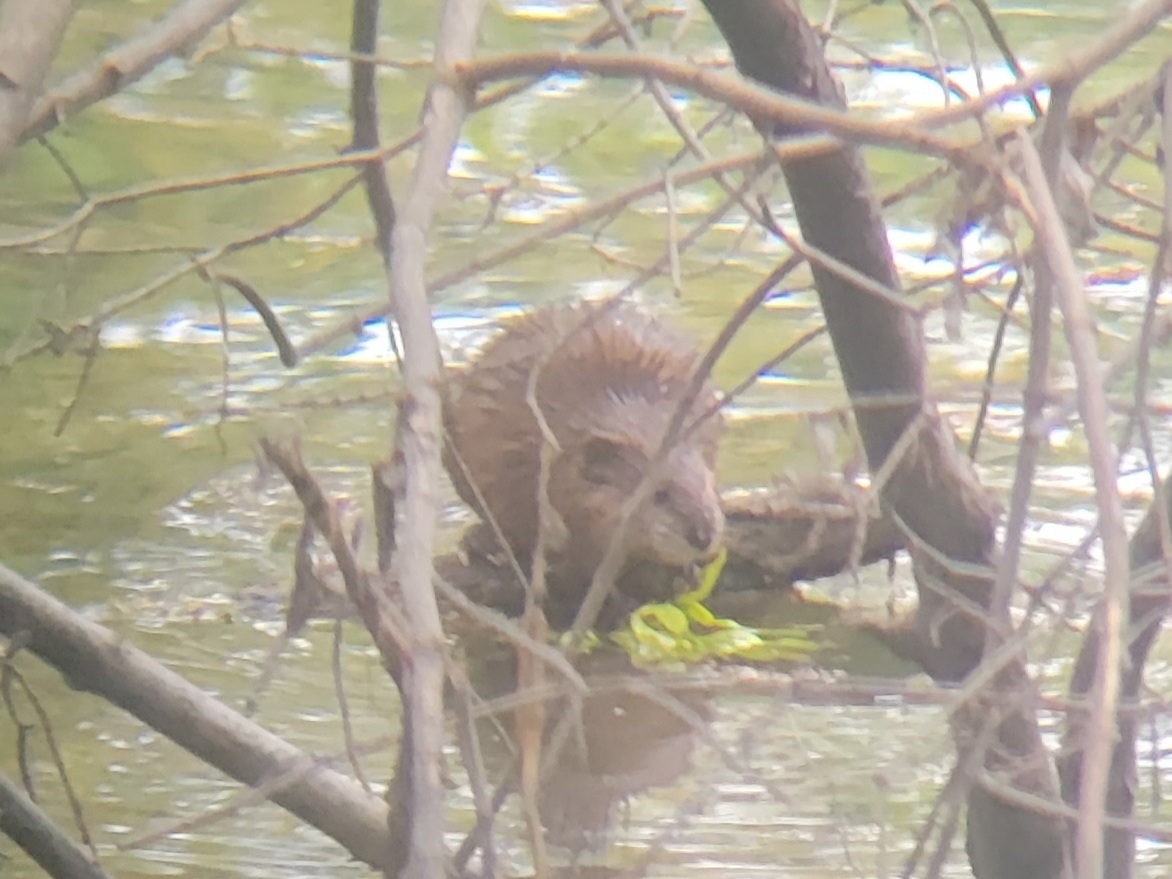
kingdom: Animalia
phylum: Chordata
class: Mammalia
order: Rodentia
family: Cricetidae
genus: Ondatra
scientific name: Ondatra zibethicus
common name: Muskrat
